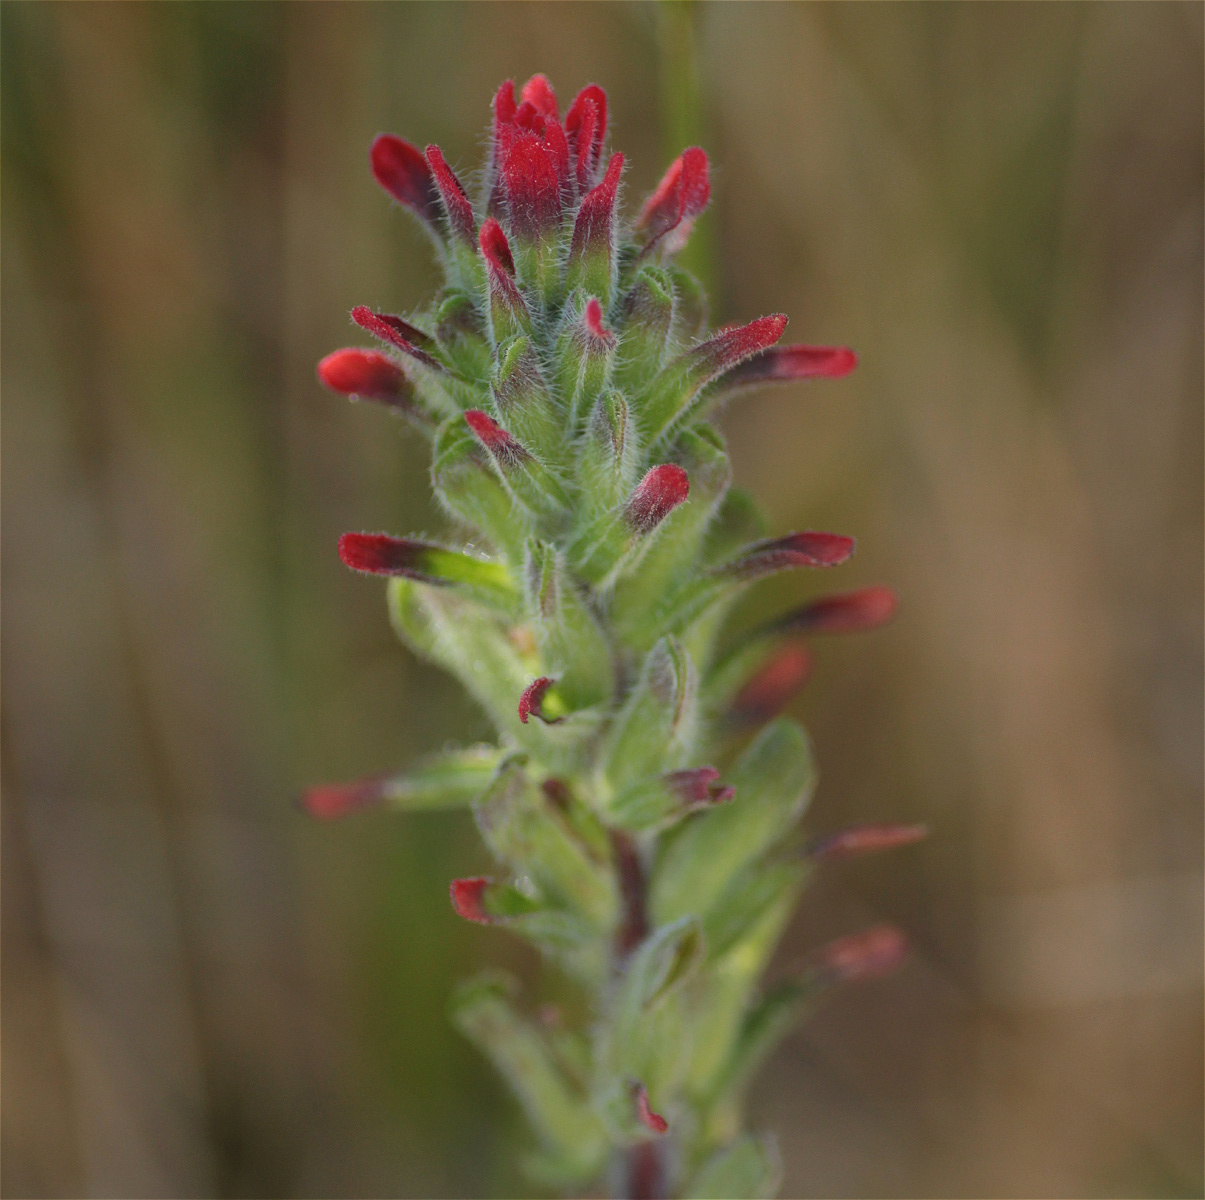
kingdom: Plantae
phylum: Tracheophyta
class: Magnoliopsida
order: Lamiales
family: Orobanchaceae
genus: Castilleja
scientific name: Castilleja arvensis
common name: Indian paintbrush
